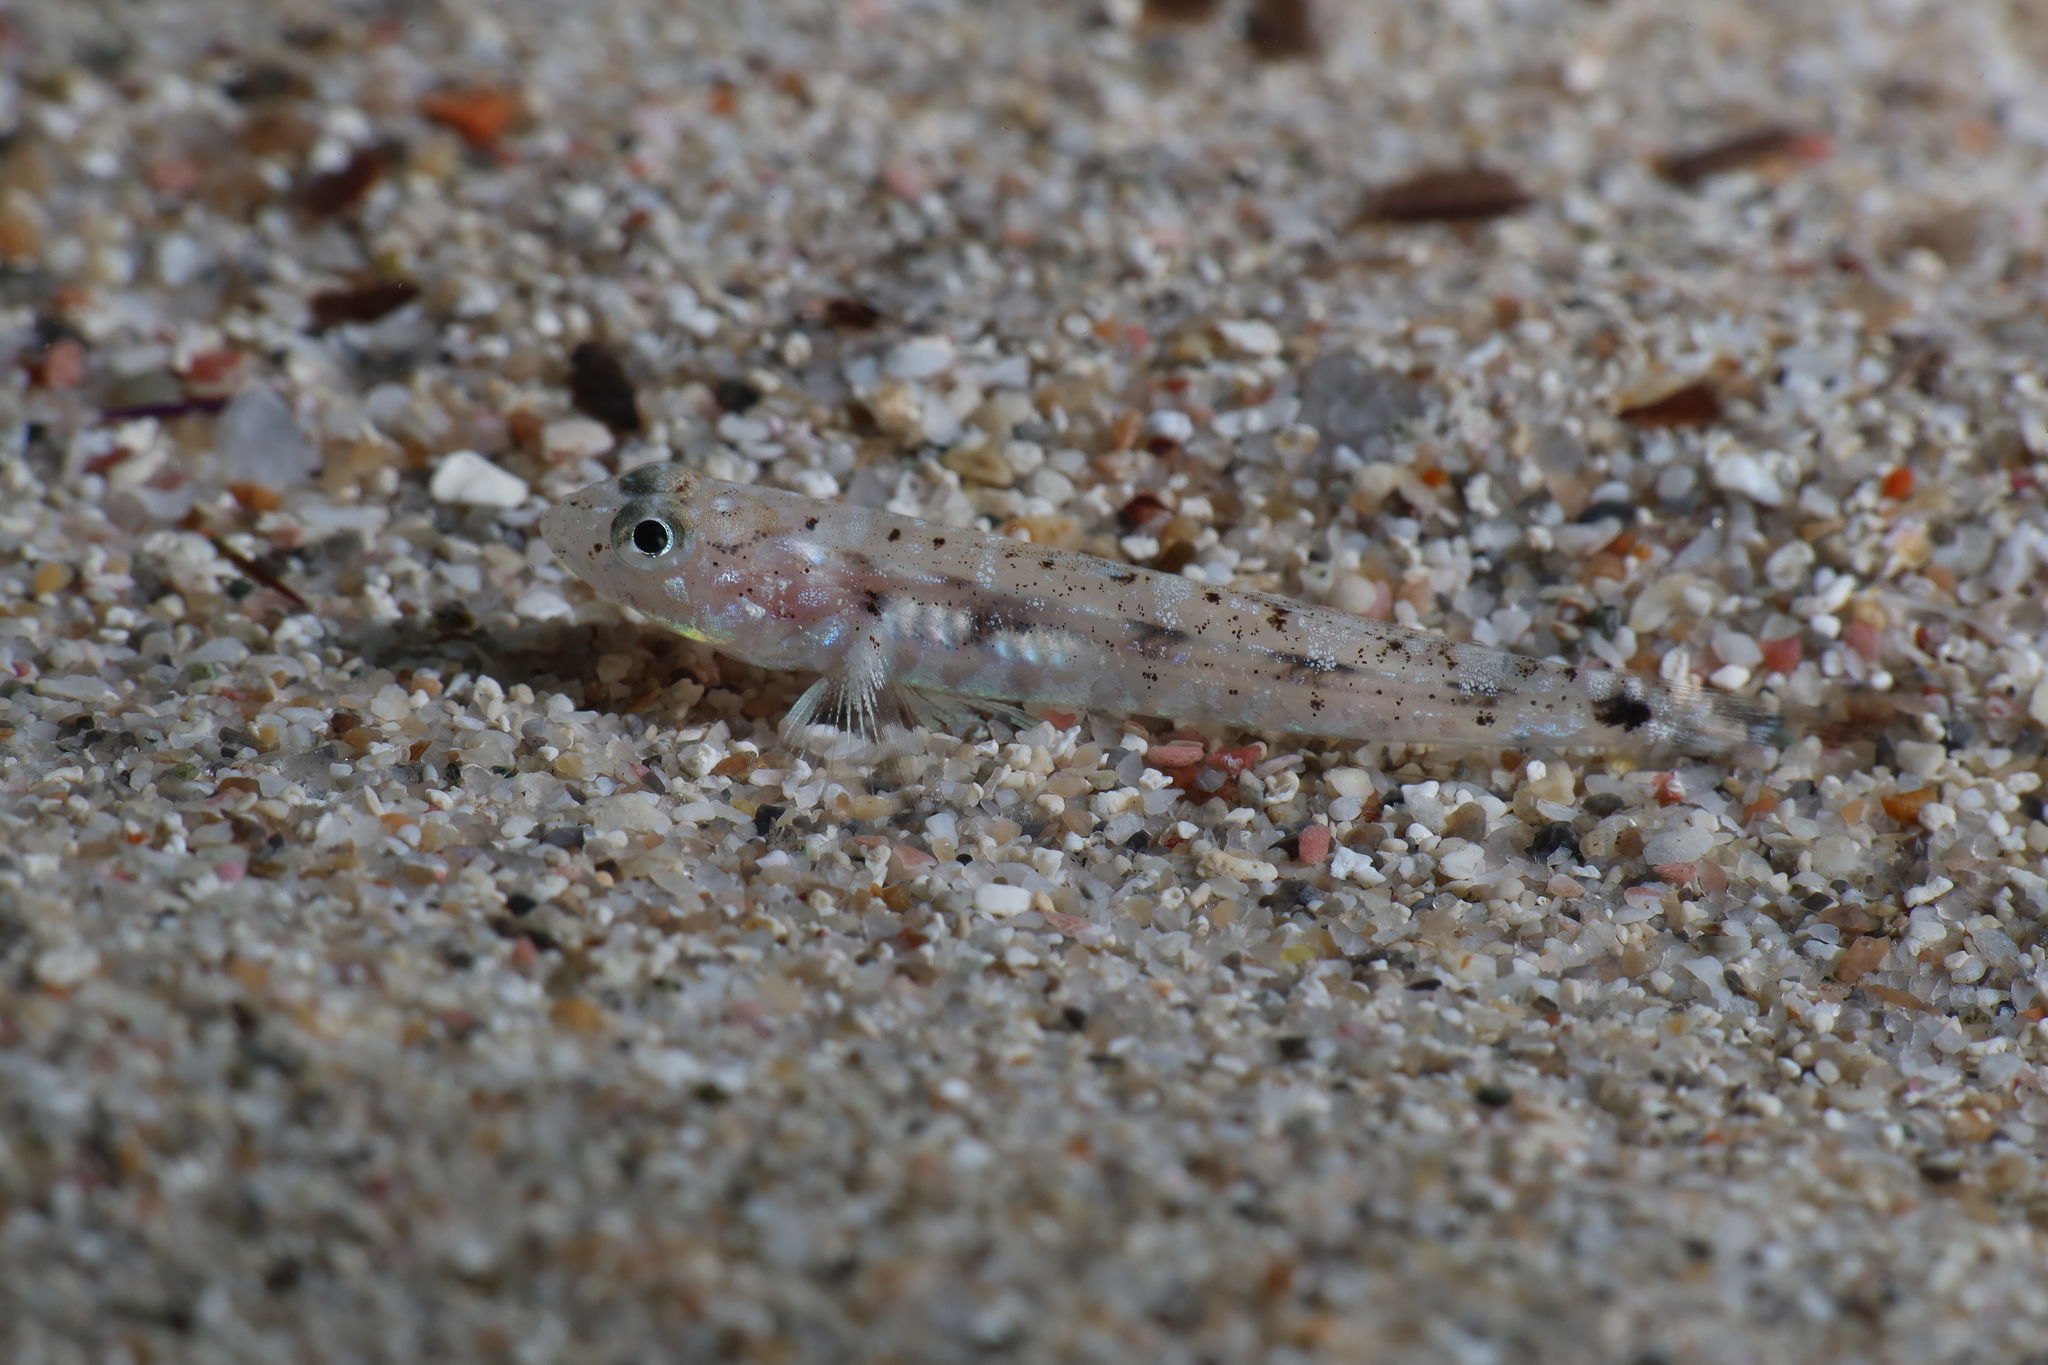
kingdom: Animalia
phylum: Chordata
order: Perciformes
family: Gobiidae
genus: Pomatoschistus
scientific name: Pomatoschistus marmoratus
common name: Marbled goby
